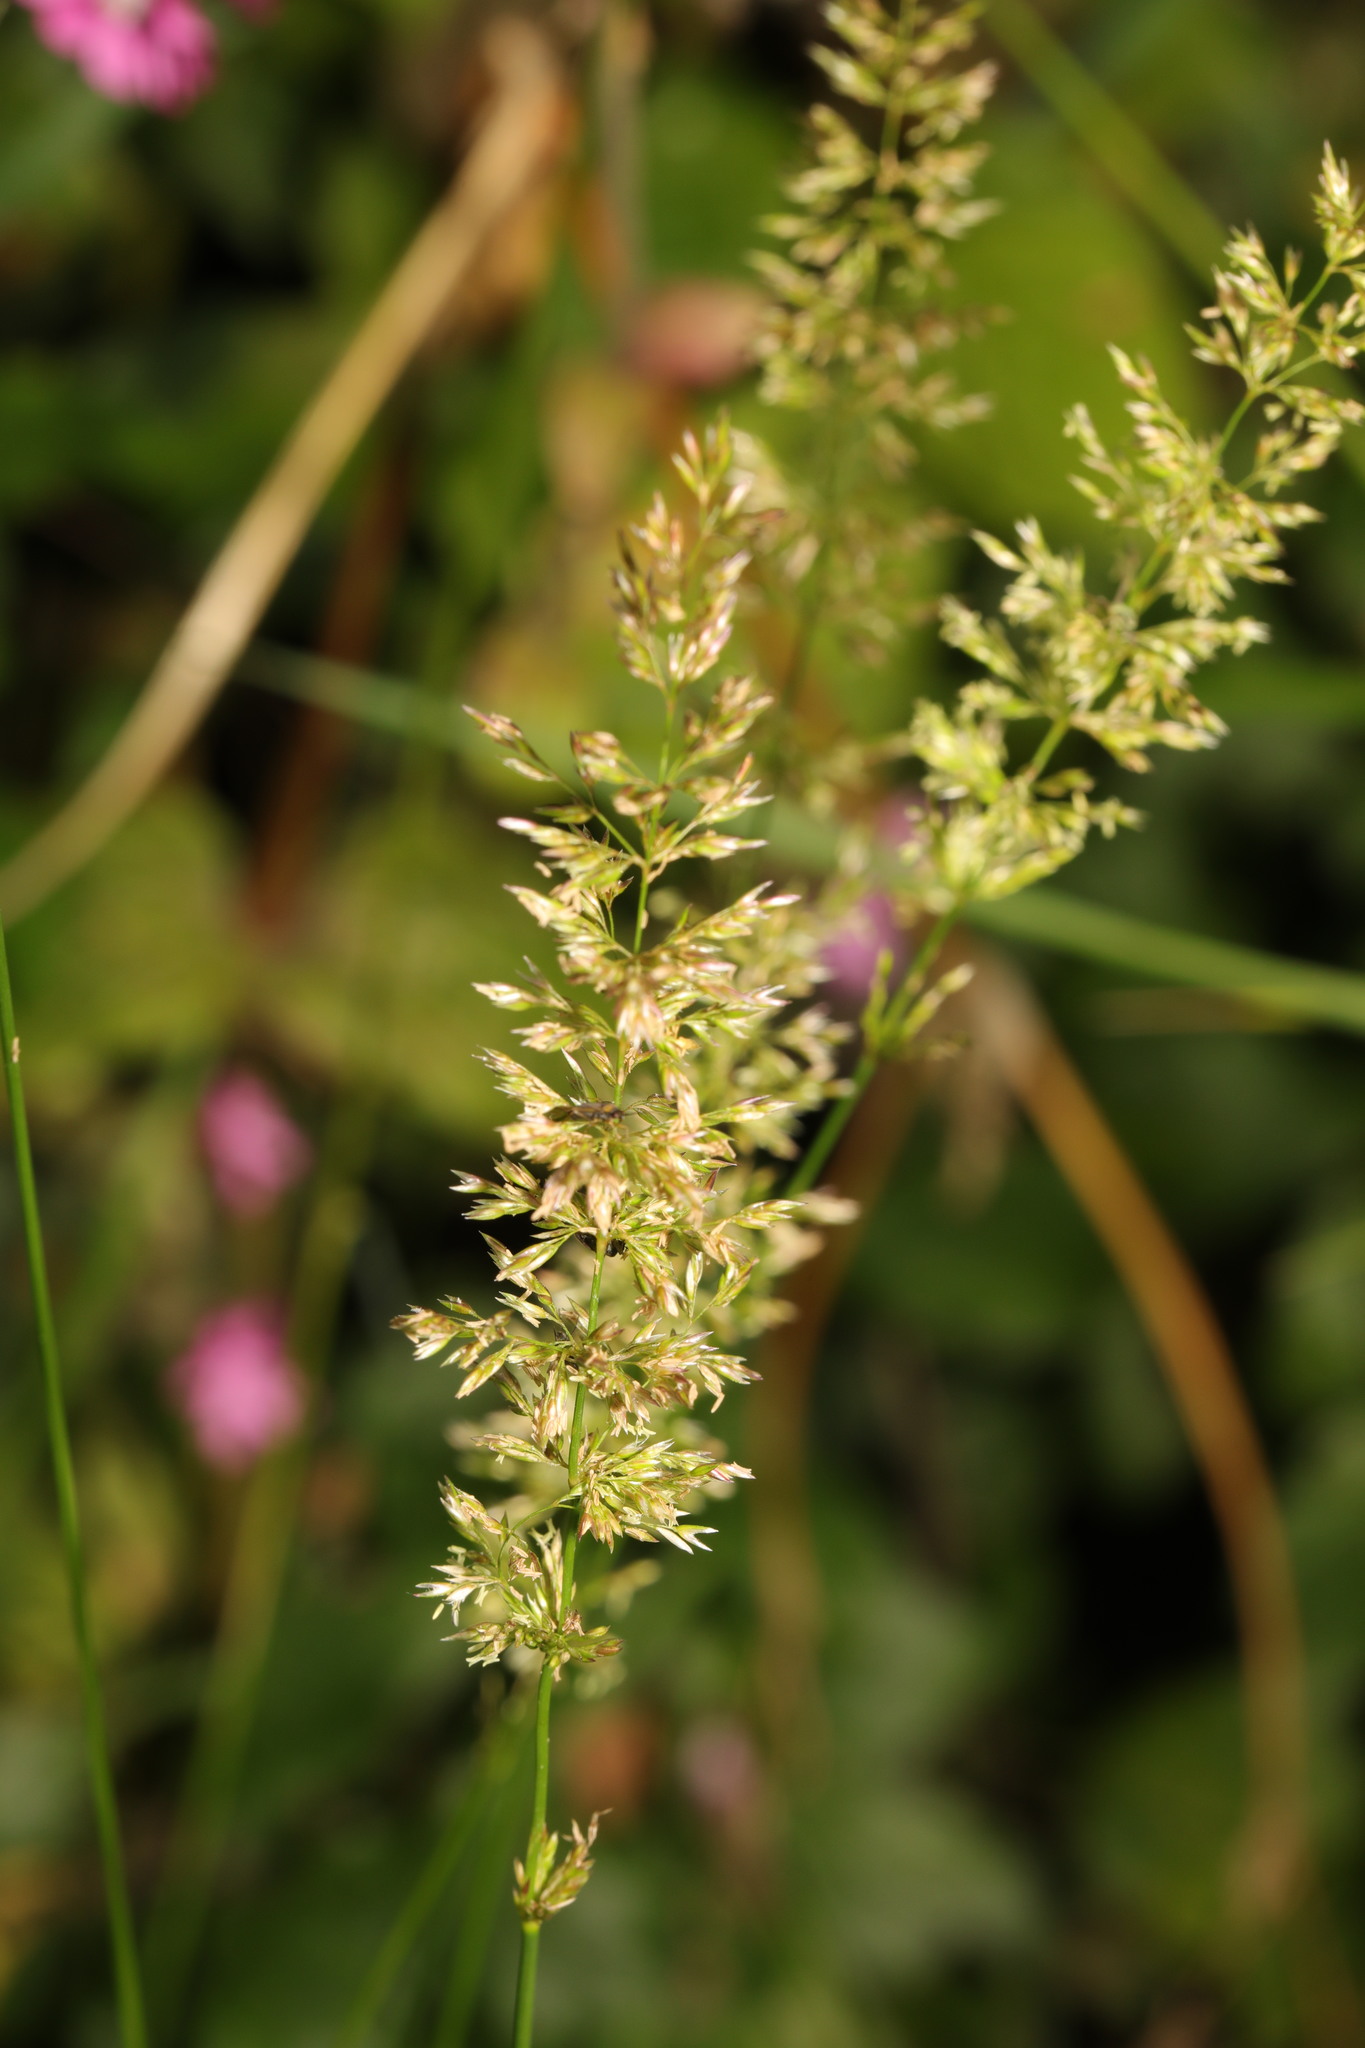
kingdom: Plantae
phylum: Tracheophyta
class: Liliopsida
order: Poales
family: Poaceae
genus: Polypogon
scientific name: Polypogon viridis
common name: Water bent
